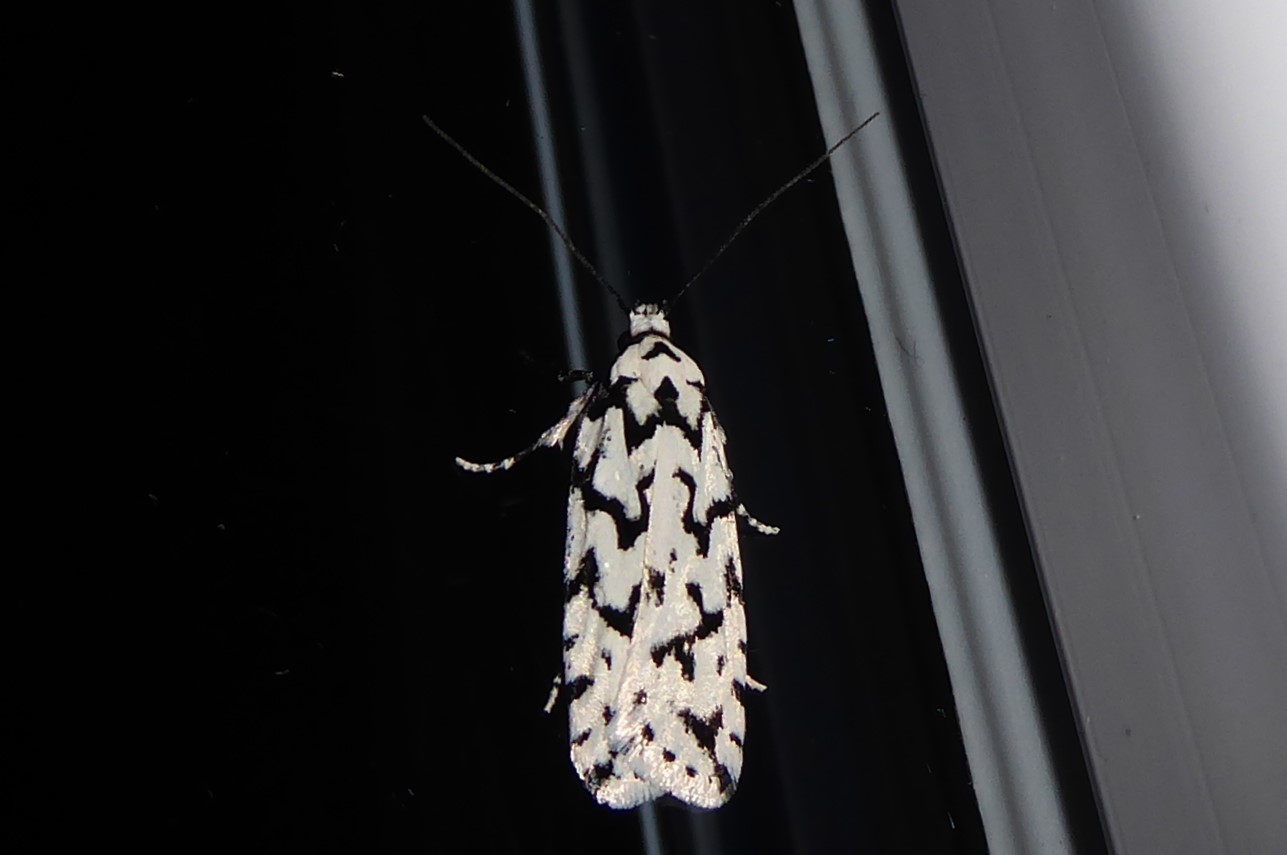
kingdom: Animalia
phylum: Arthropoda
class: Insecta
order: Lepidoptera
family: Oecophoridae
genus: Izatha
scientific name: Izatha katadiktya
